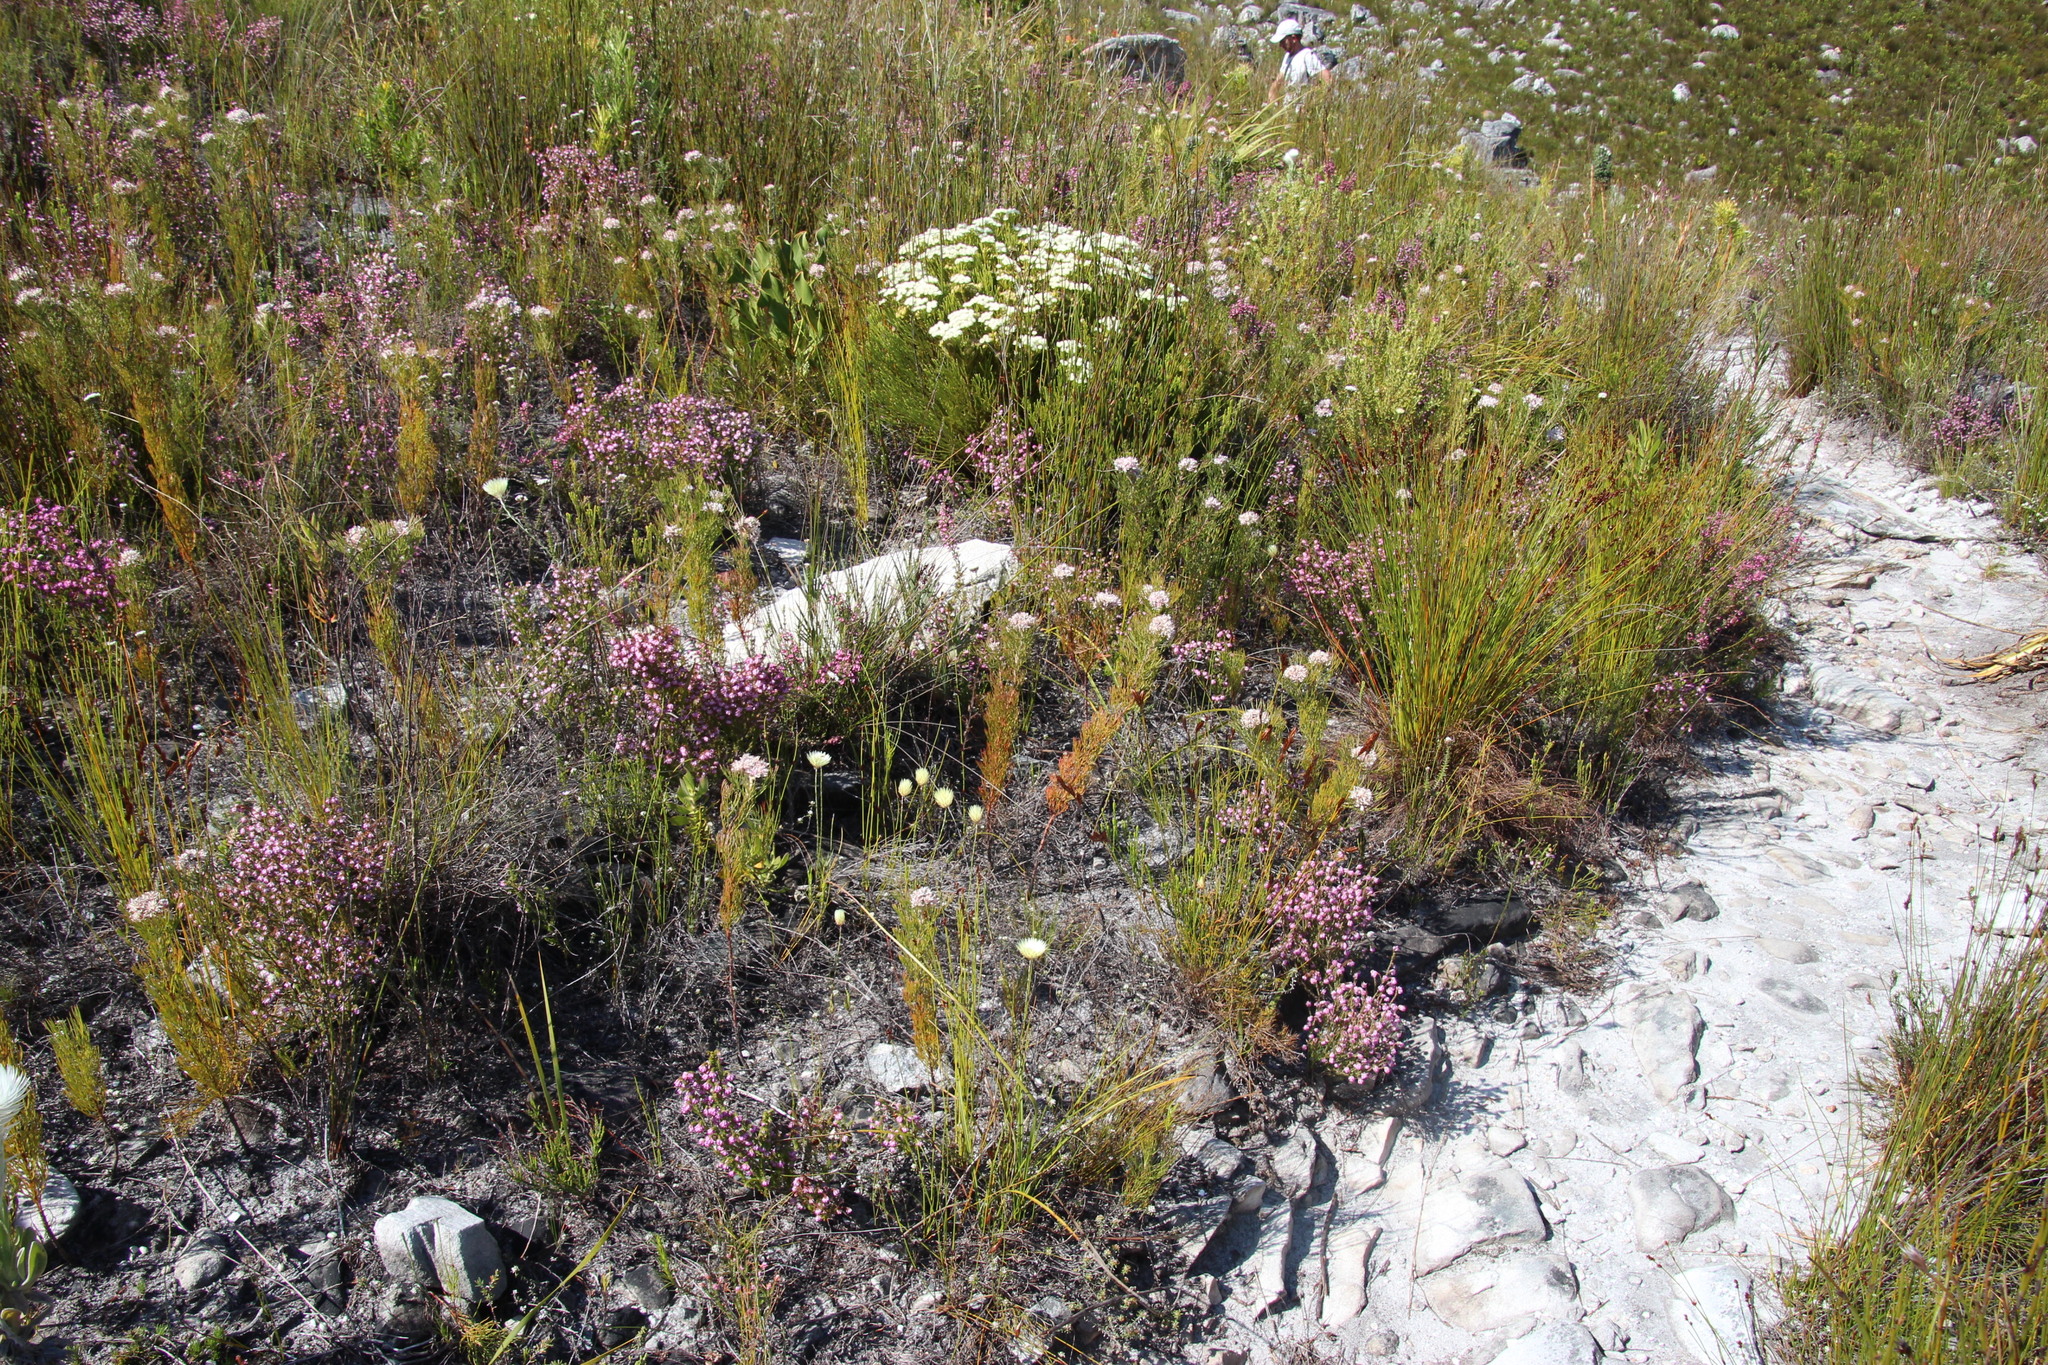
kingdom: Plantae
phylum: Tracheophyta
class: Magnoliopsida
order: Ericales
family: Ericaceae
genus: Erica
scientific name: Erica placentiflora
